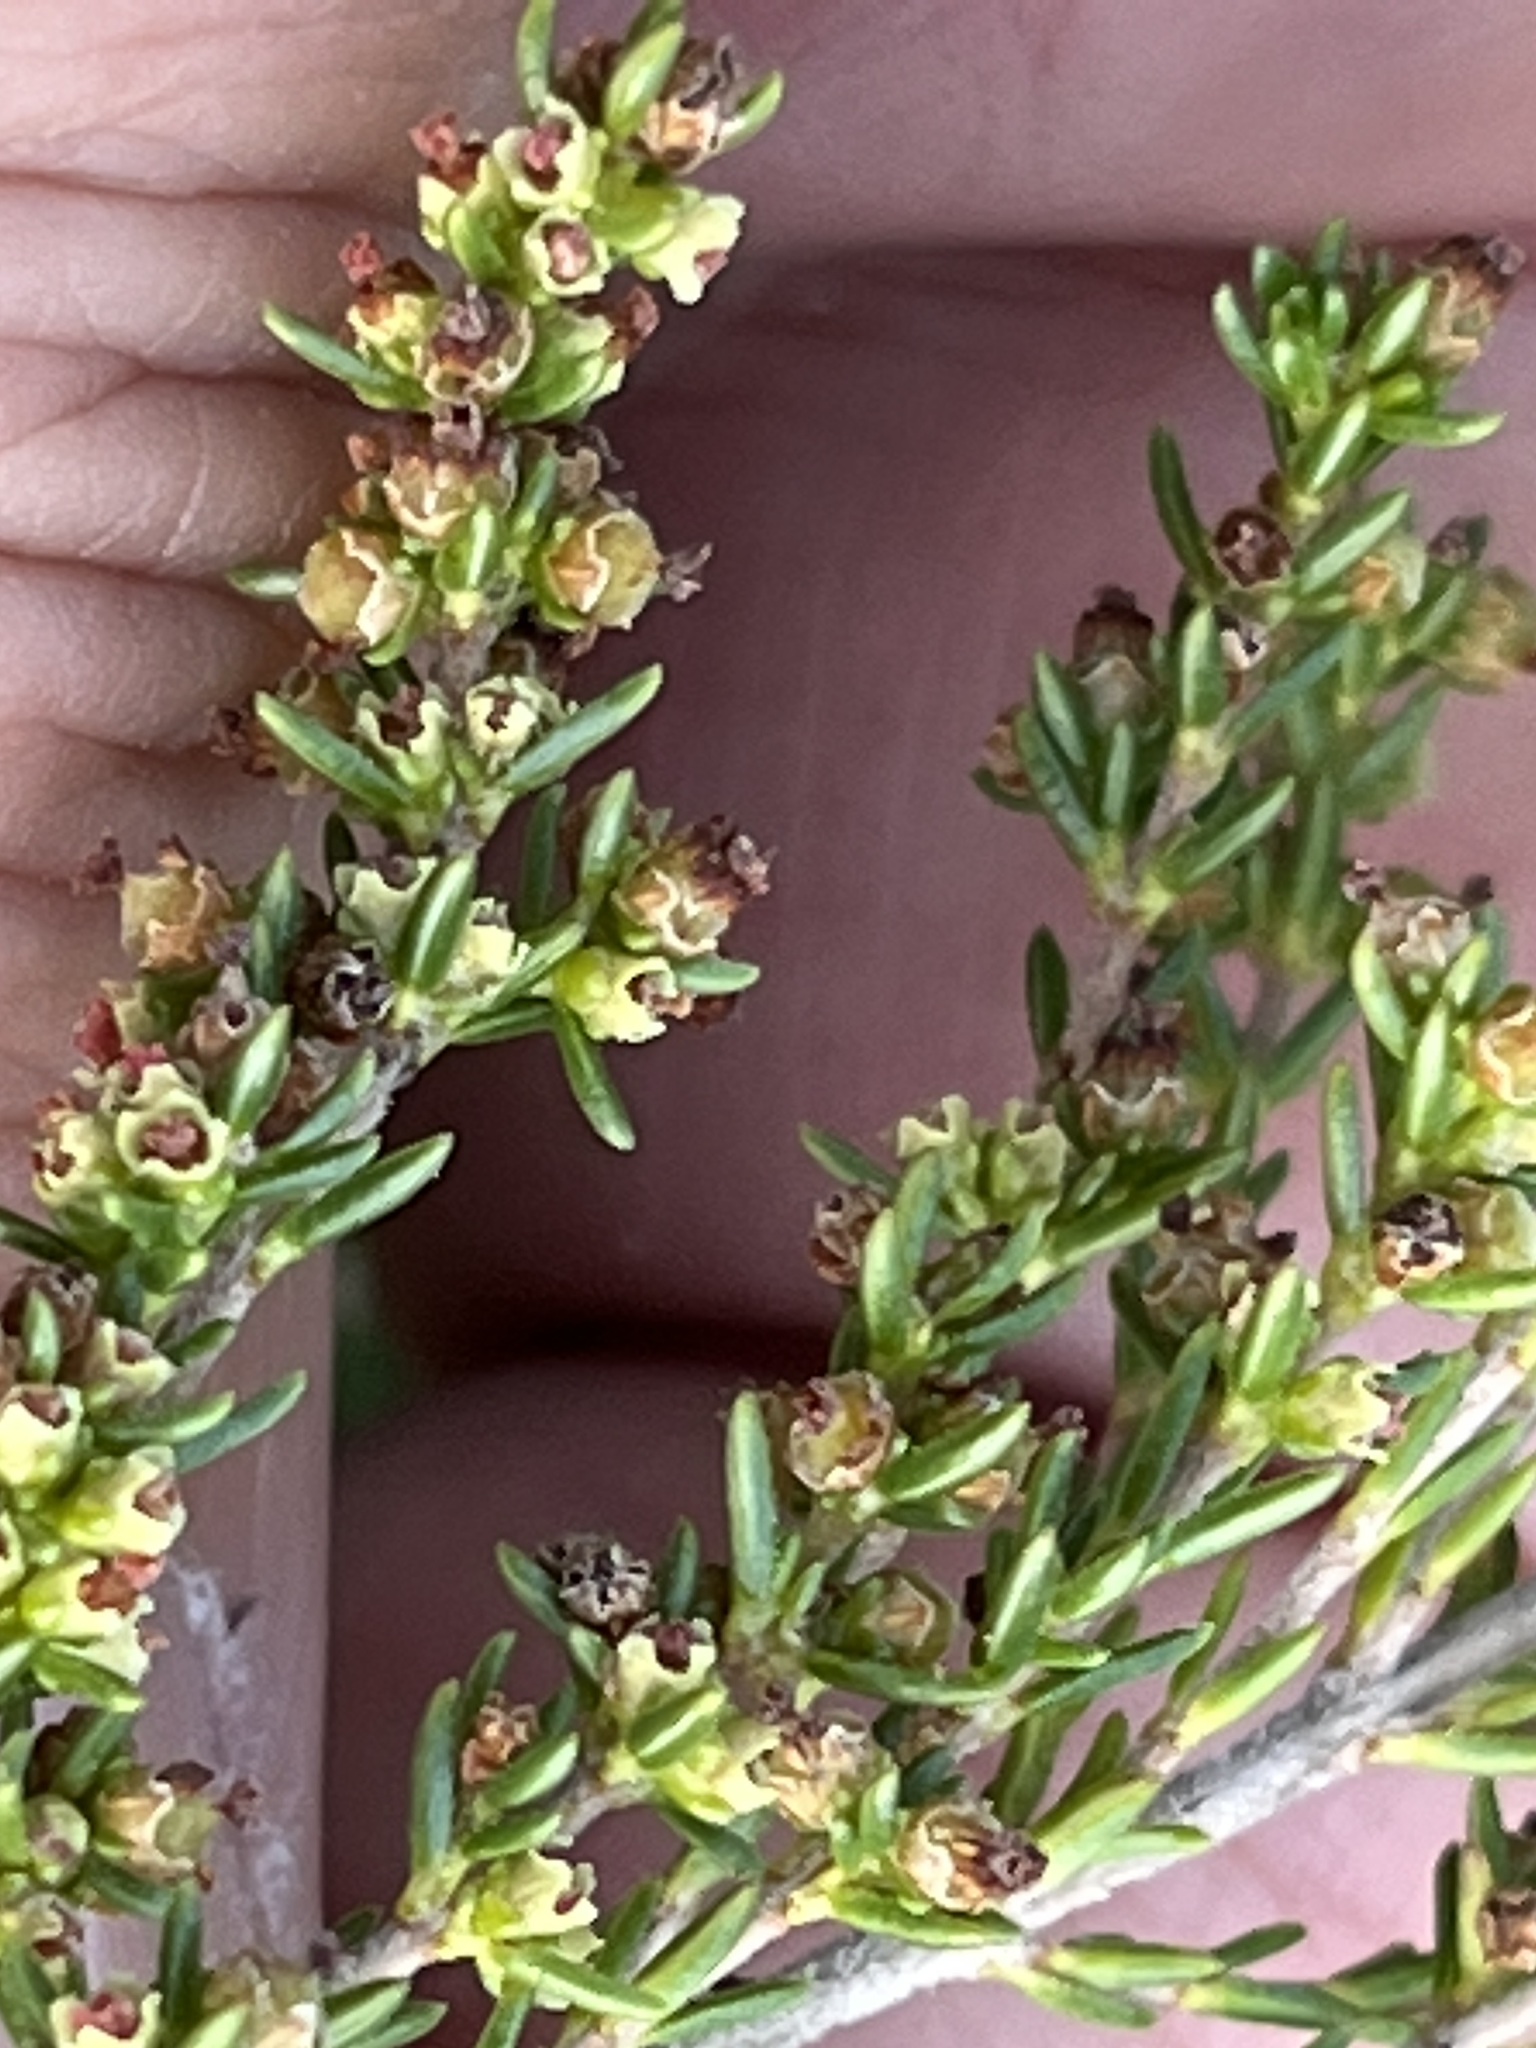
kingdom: Plantae
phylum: Tracheophyta
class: Magnoliopsida
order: Ericales
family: Ericaceae
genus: Erica
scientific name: Erica axillaris
